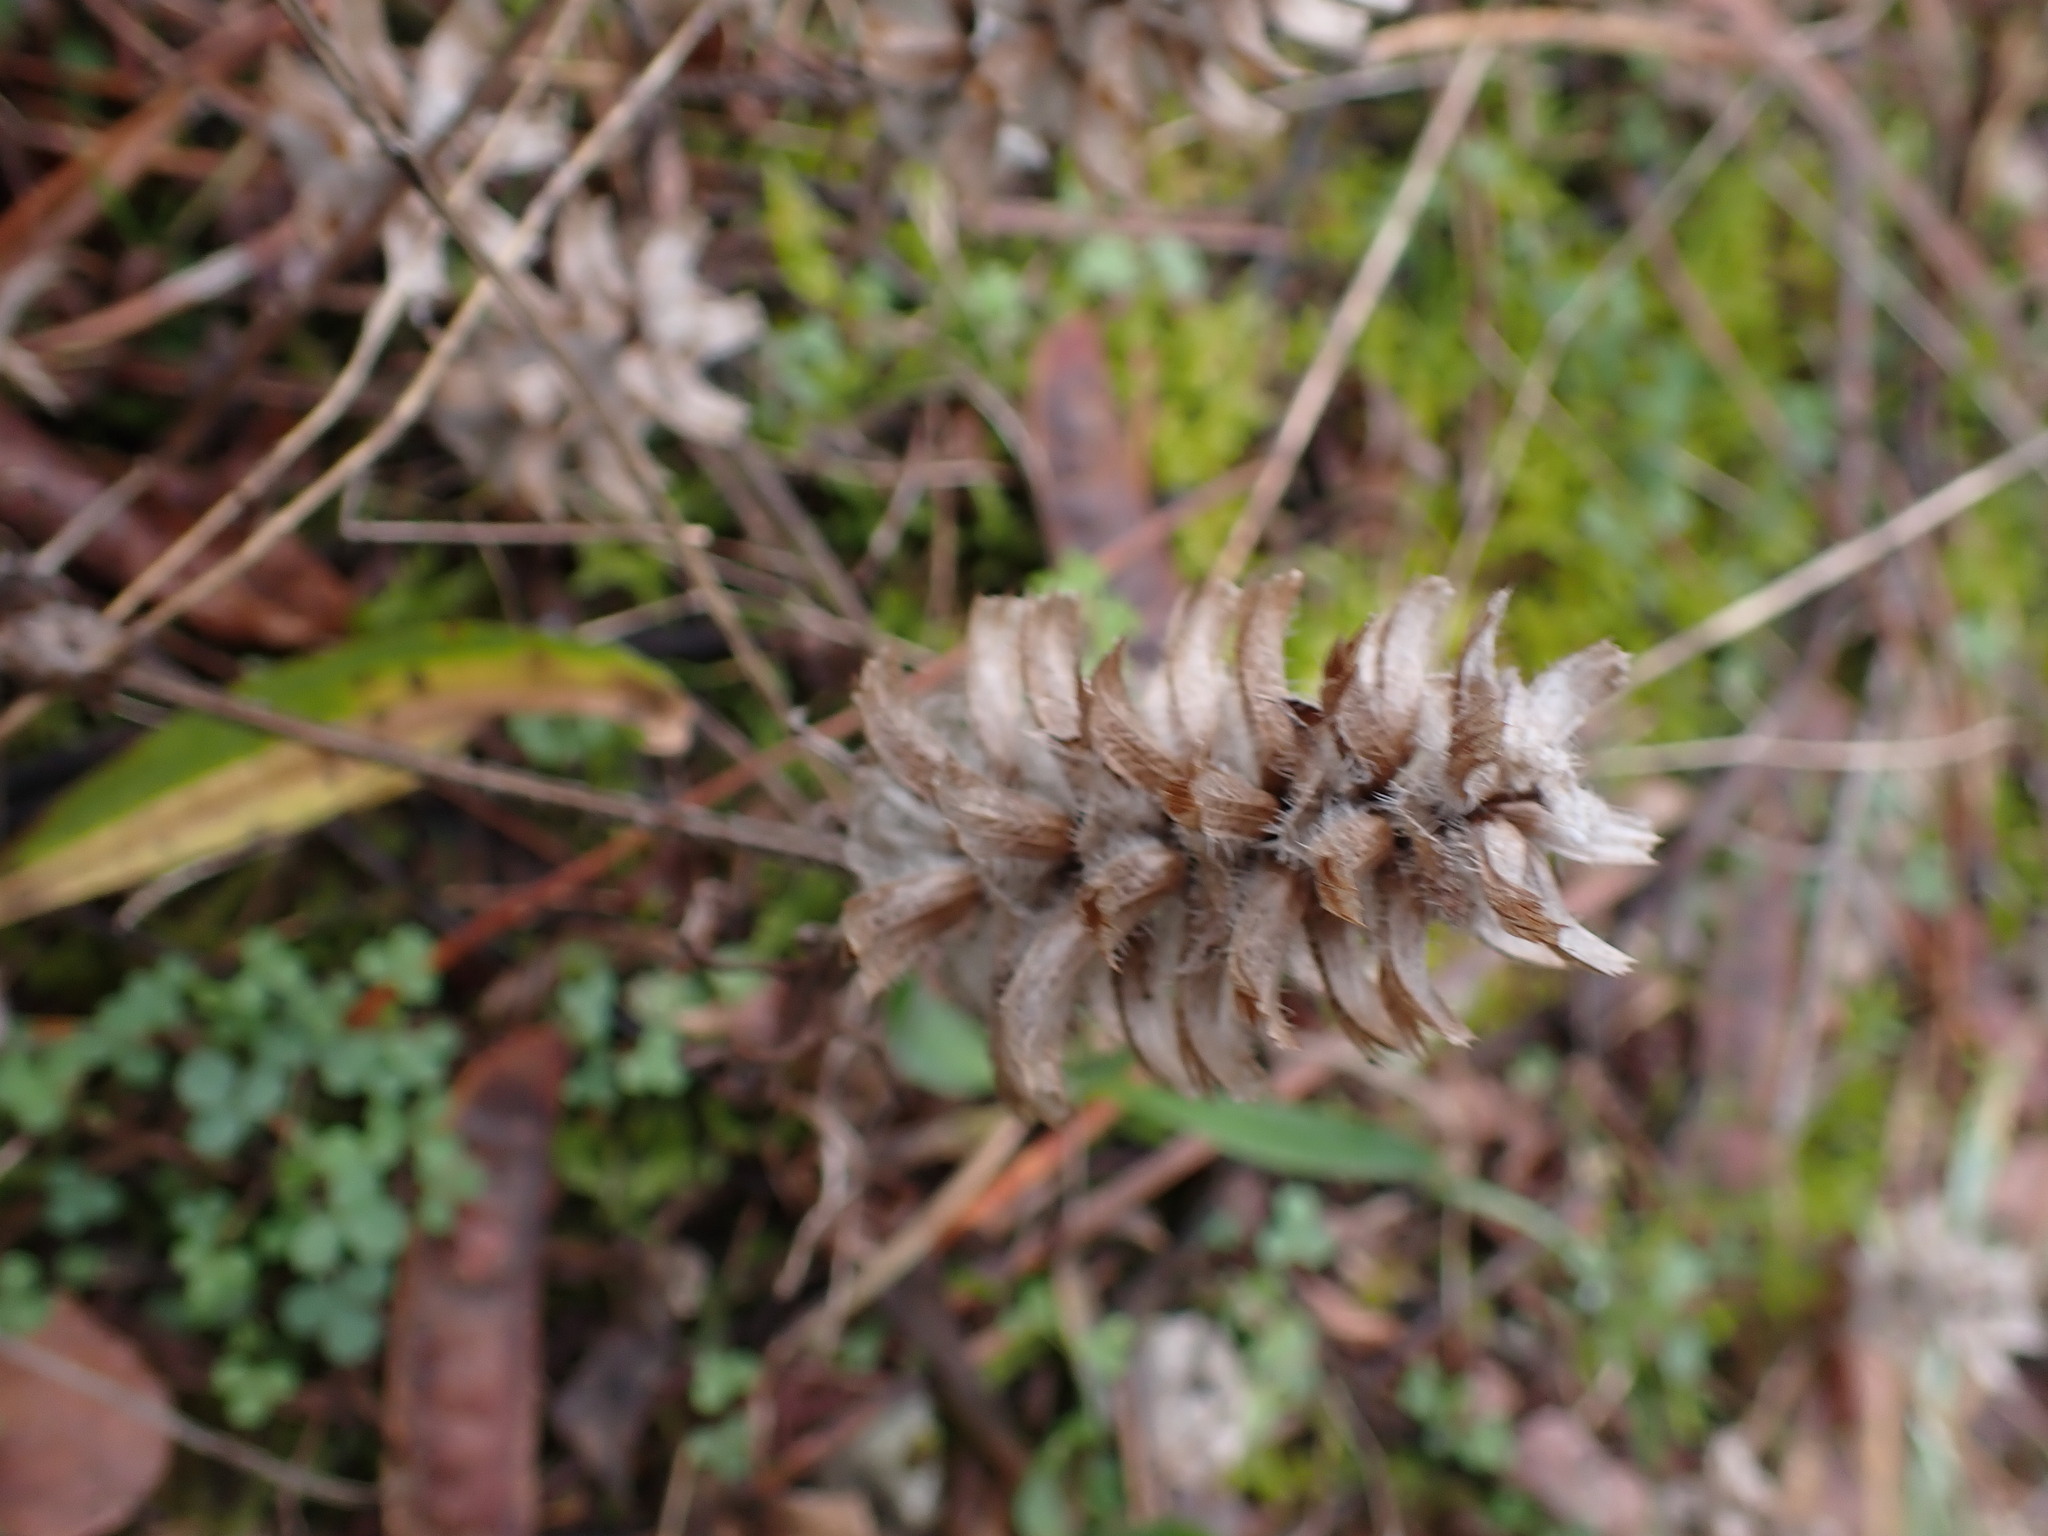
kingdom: Plantae
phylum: Tracheophyta
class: Magnoliopsida
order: Lamiales
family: Lamiaceae
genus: Prunella
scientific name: Prunella vulgaris
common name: Heal-all
